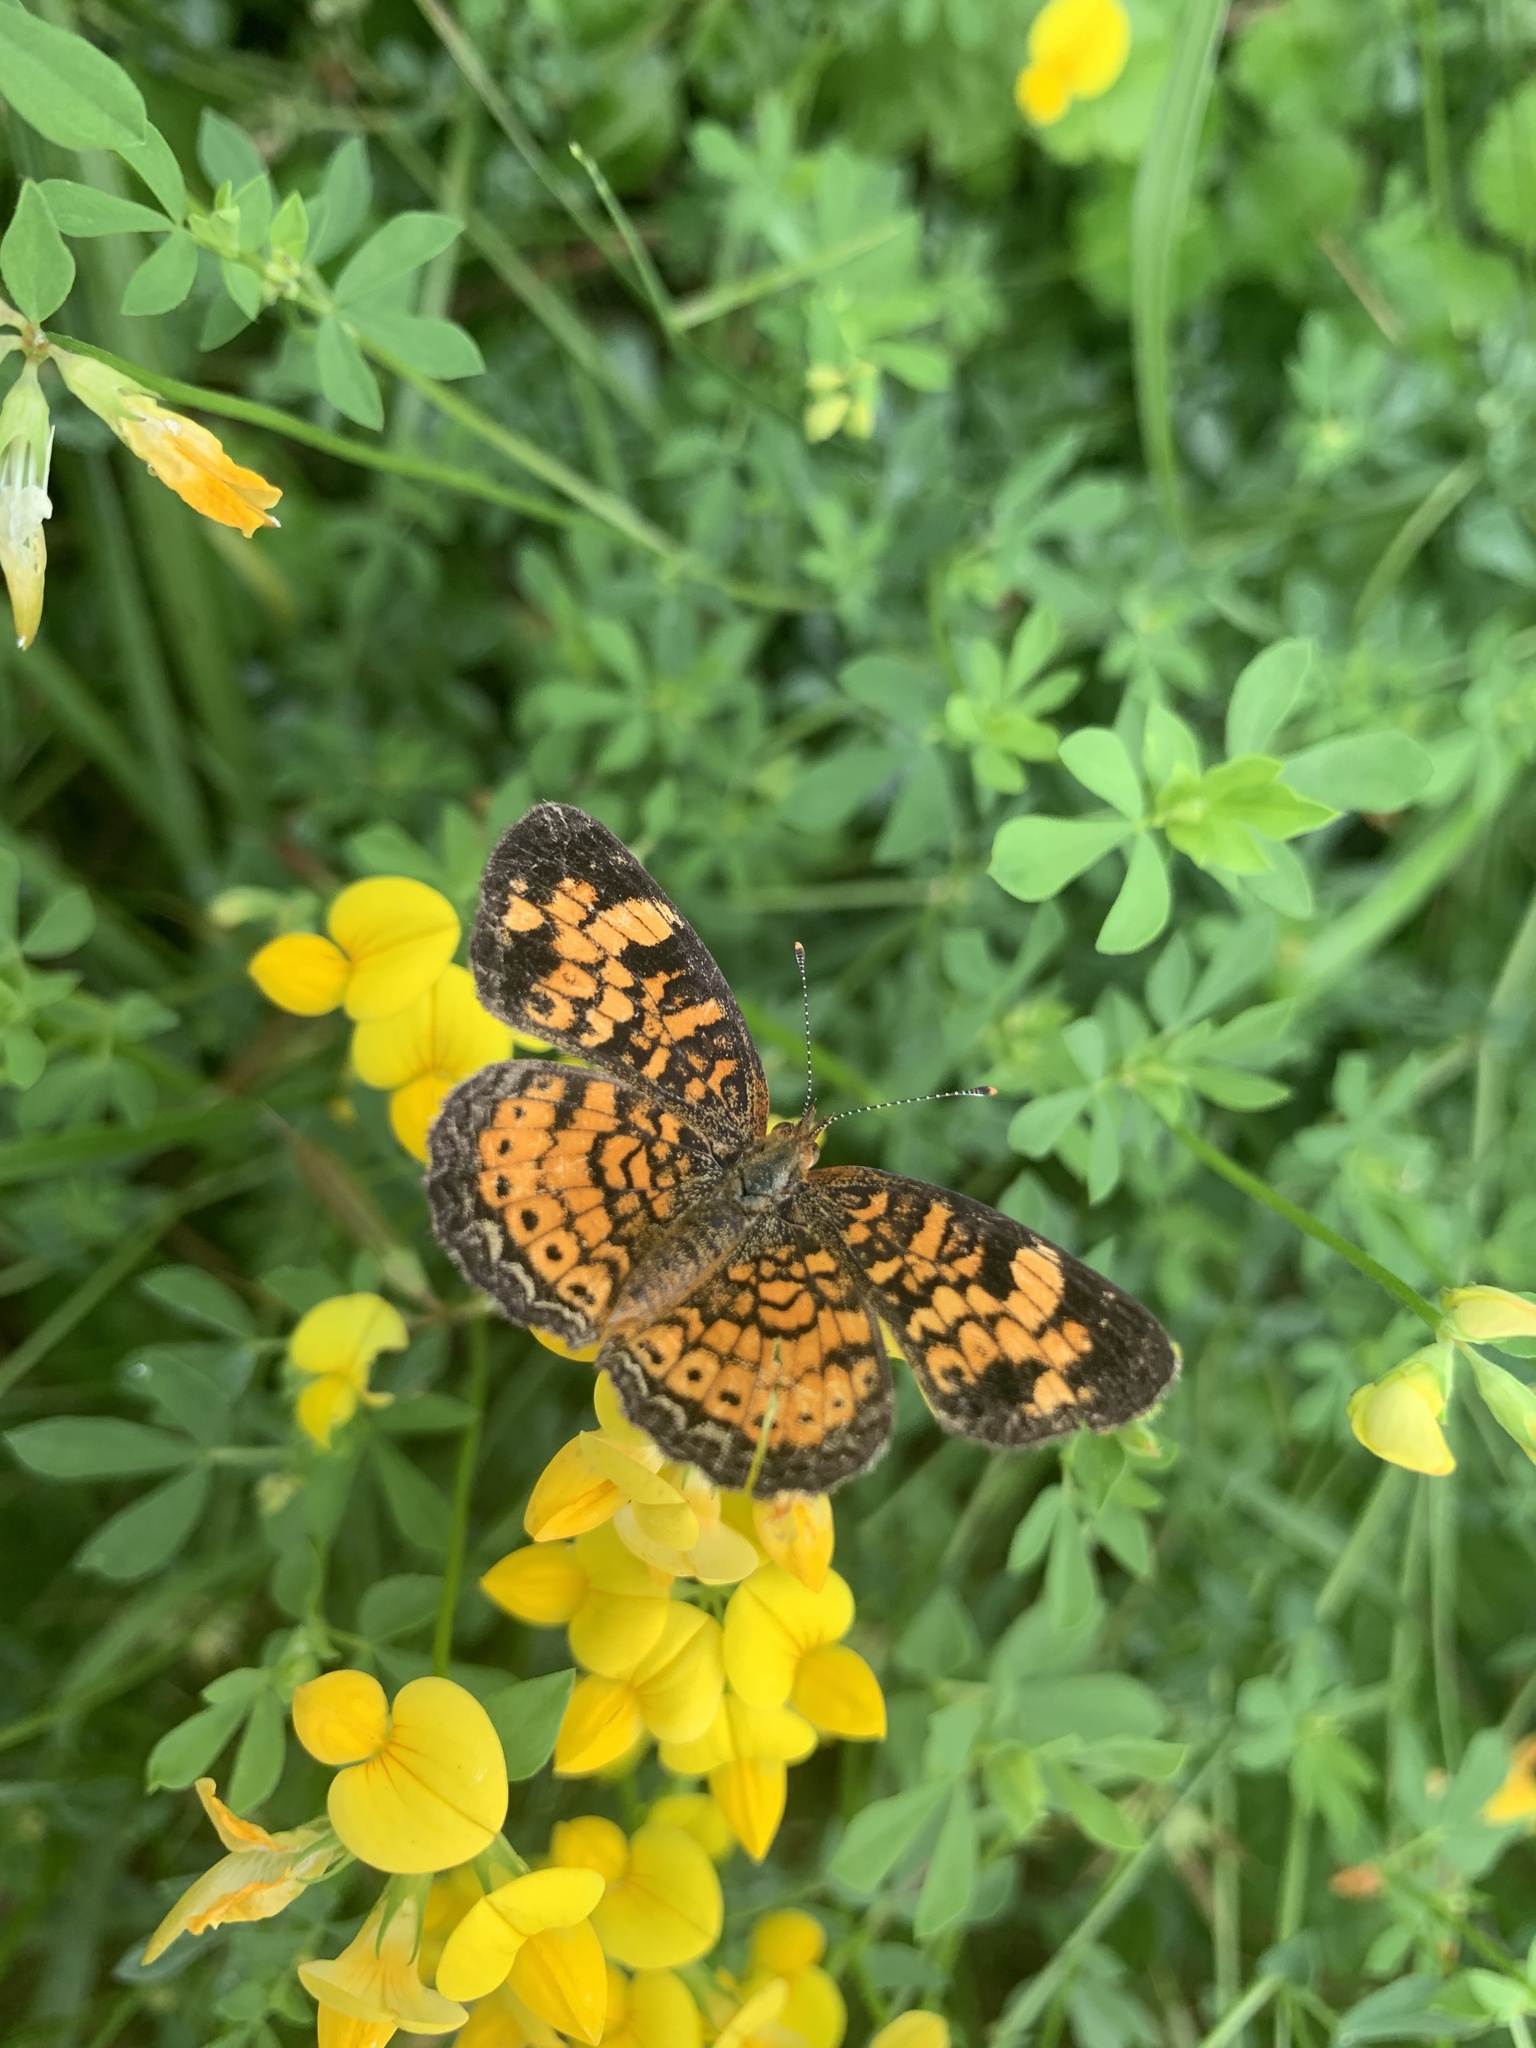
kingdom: Animalia
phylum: Arthropoda
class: Insecta
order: Lepidoptera
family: Nymphalidae
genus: Phyciodes
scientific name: Phyciodes tharos
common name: Pearl crescent
